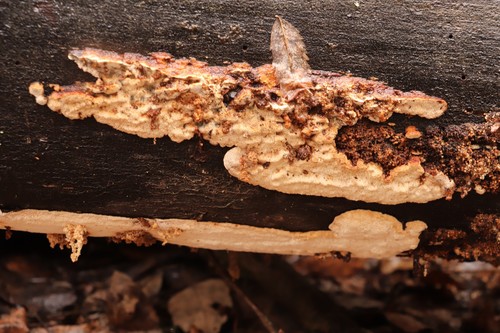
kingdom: Fungi
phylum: Basidiomycota
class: Agaricomycetes
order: Polyporales
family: Fomitopsidaceae
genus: Neoantrodia
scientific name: Neoantrodia serialis
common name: Serried porecrust
